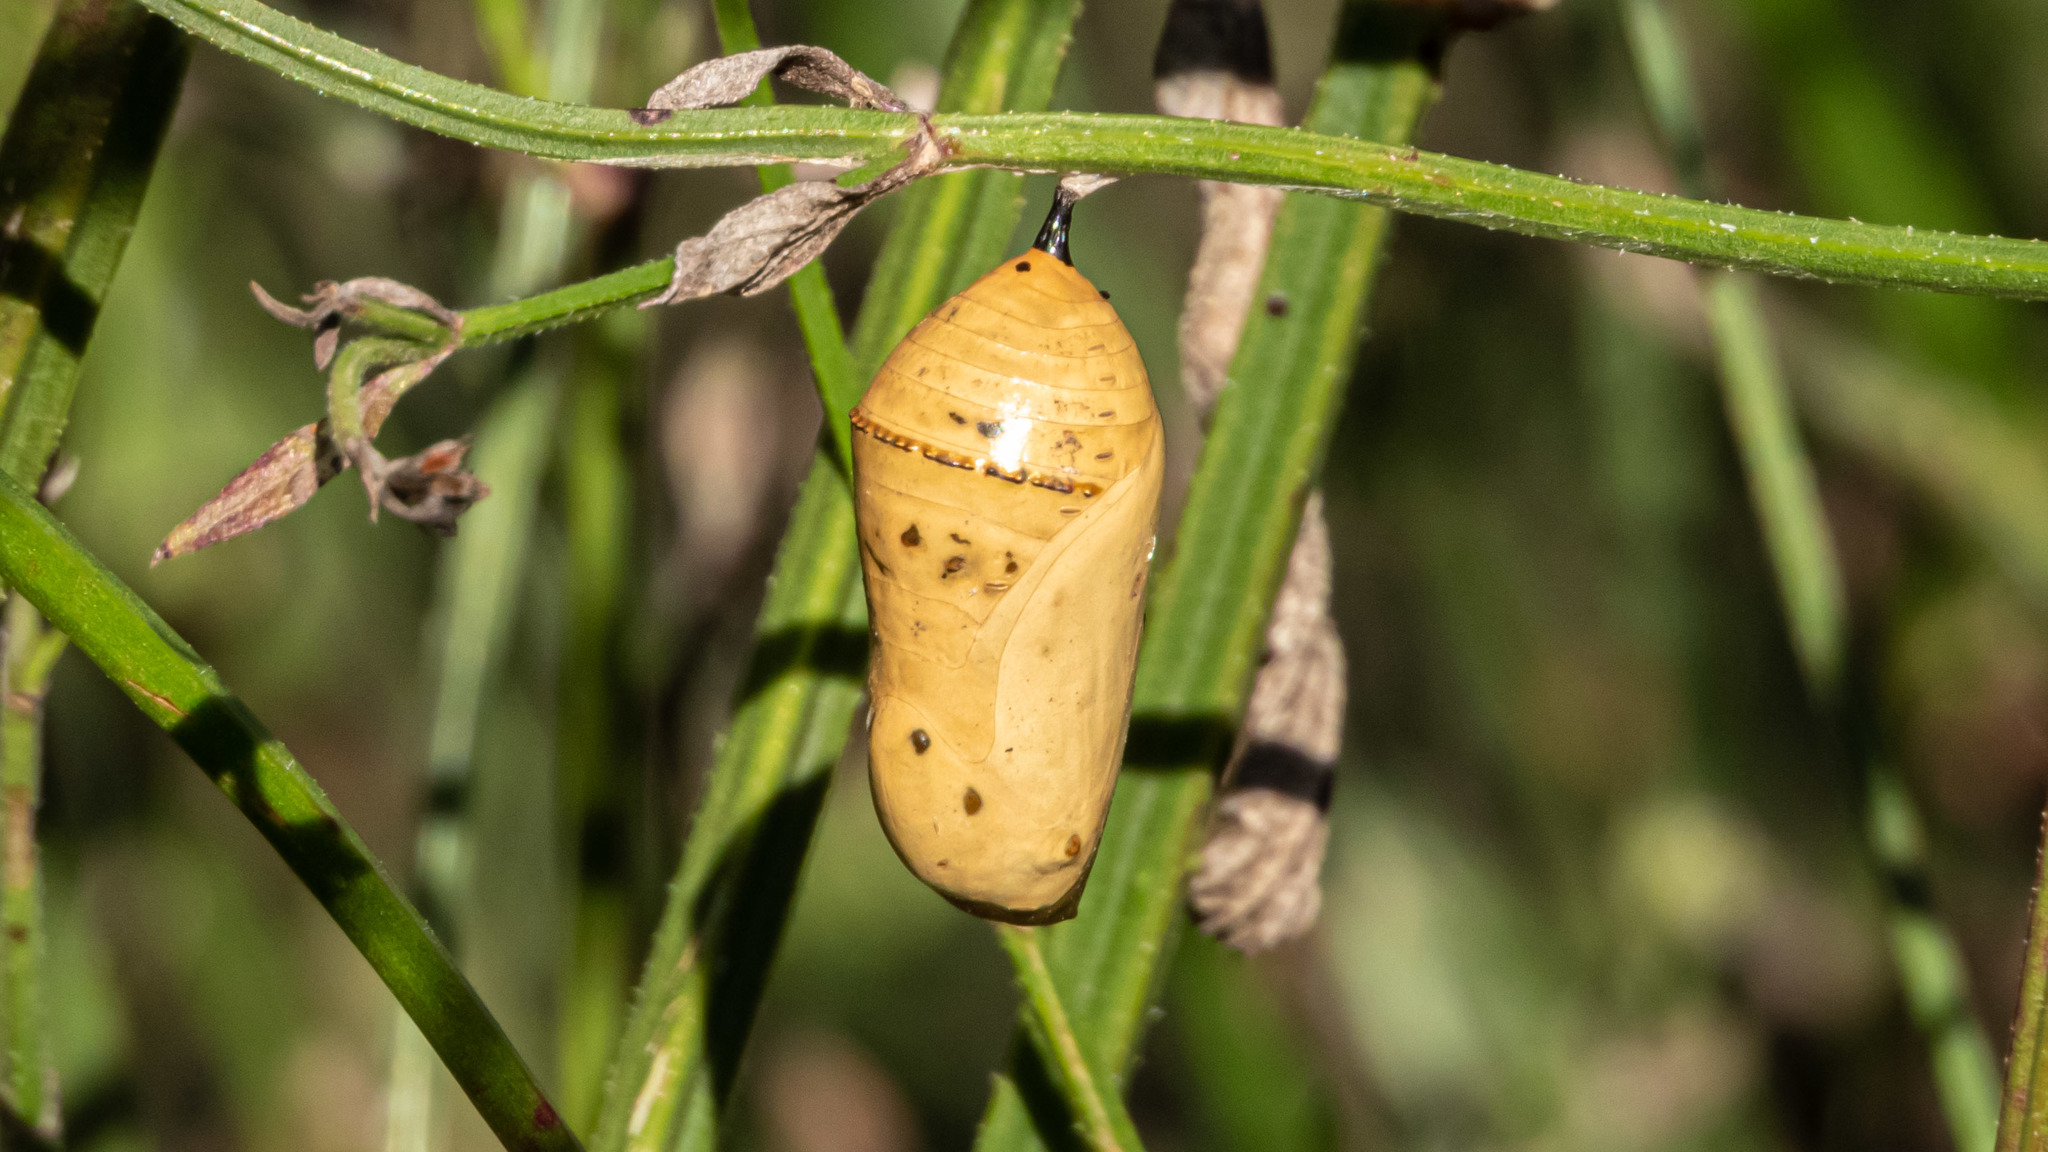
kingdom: Animalia
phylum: Arthropoda
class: Insecta
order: Lepidoptera
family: Nymphalidae
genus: Danaus
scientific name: Danaus plexippus
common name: Monarch
